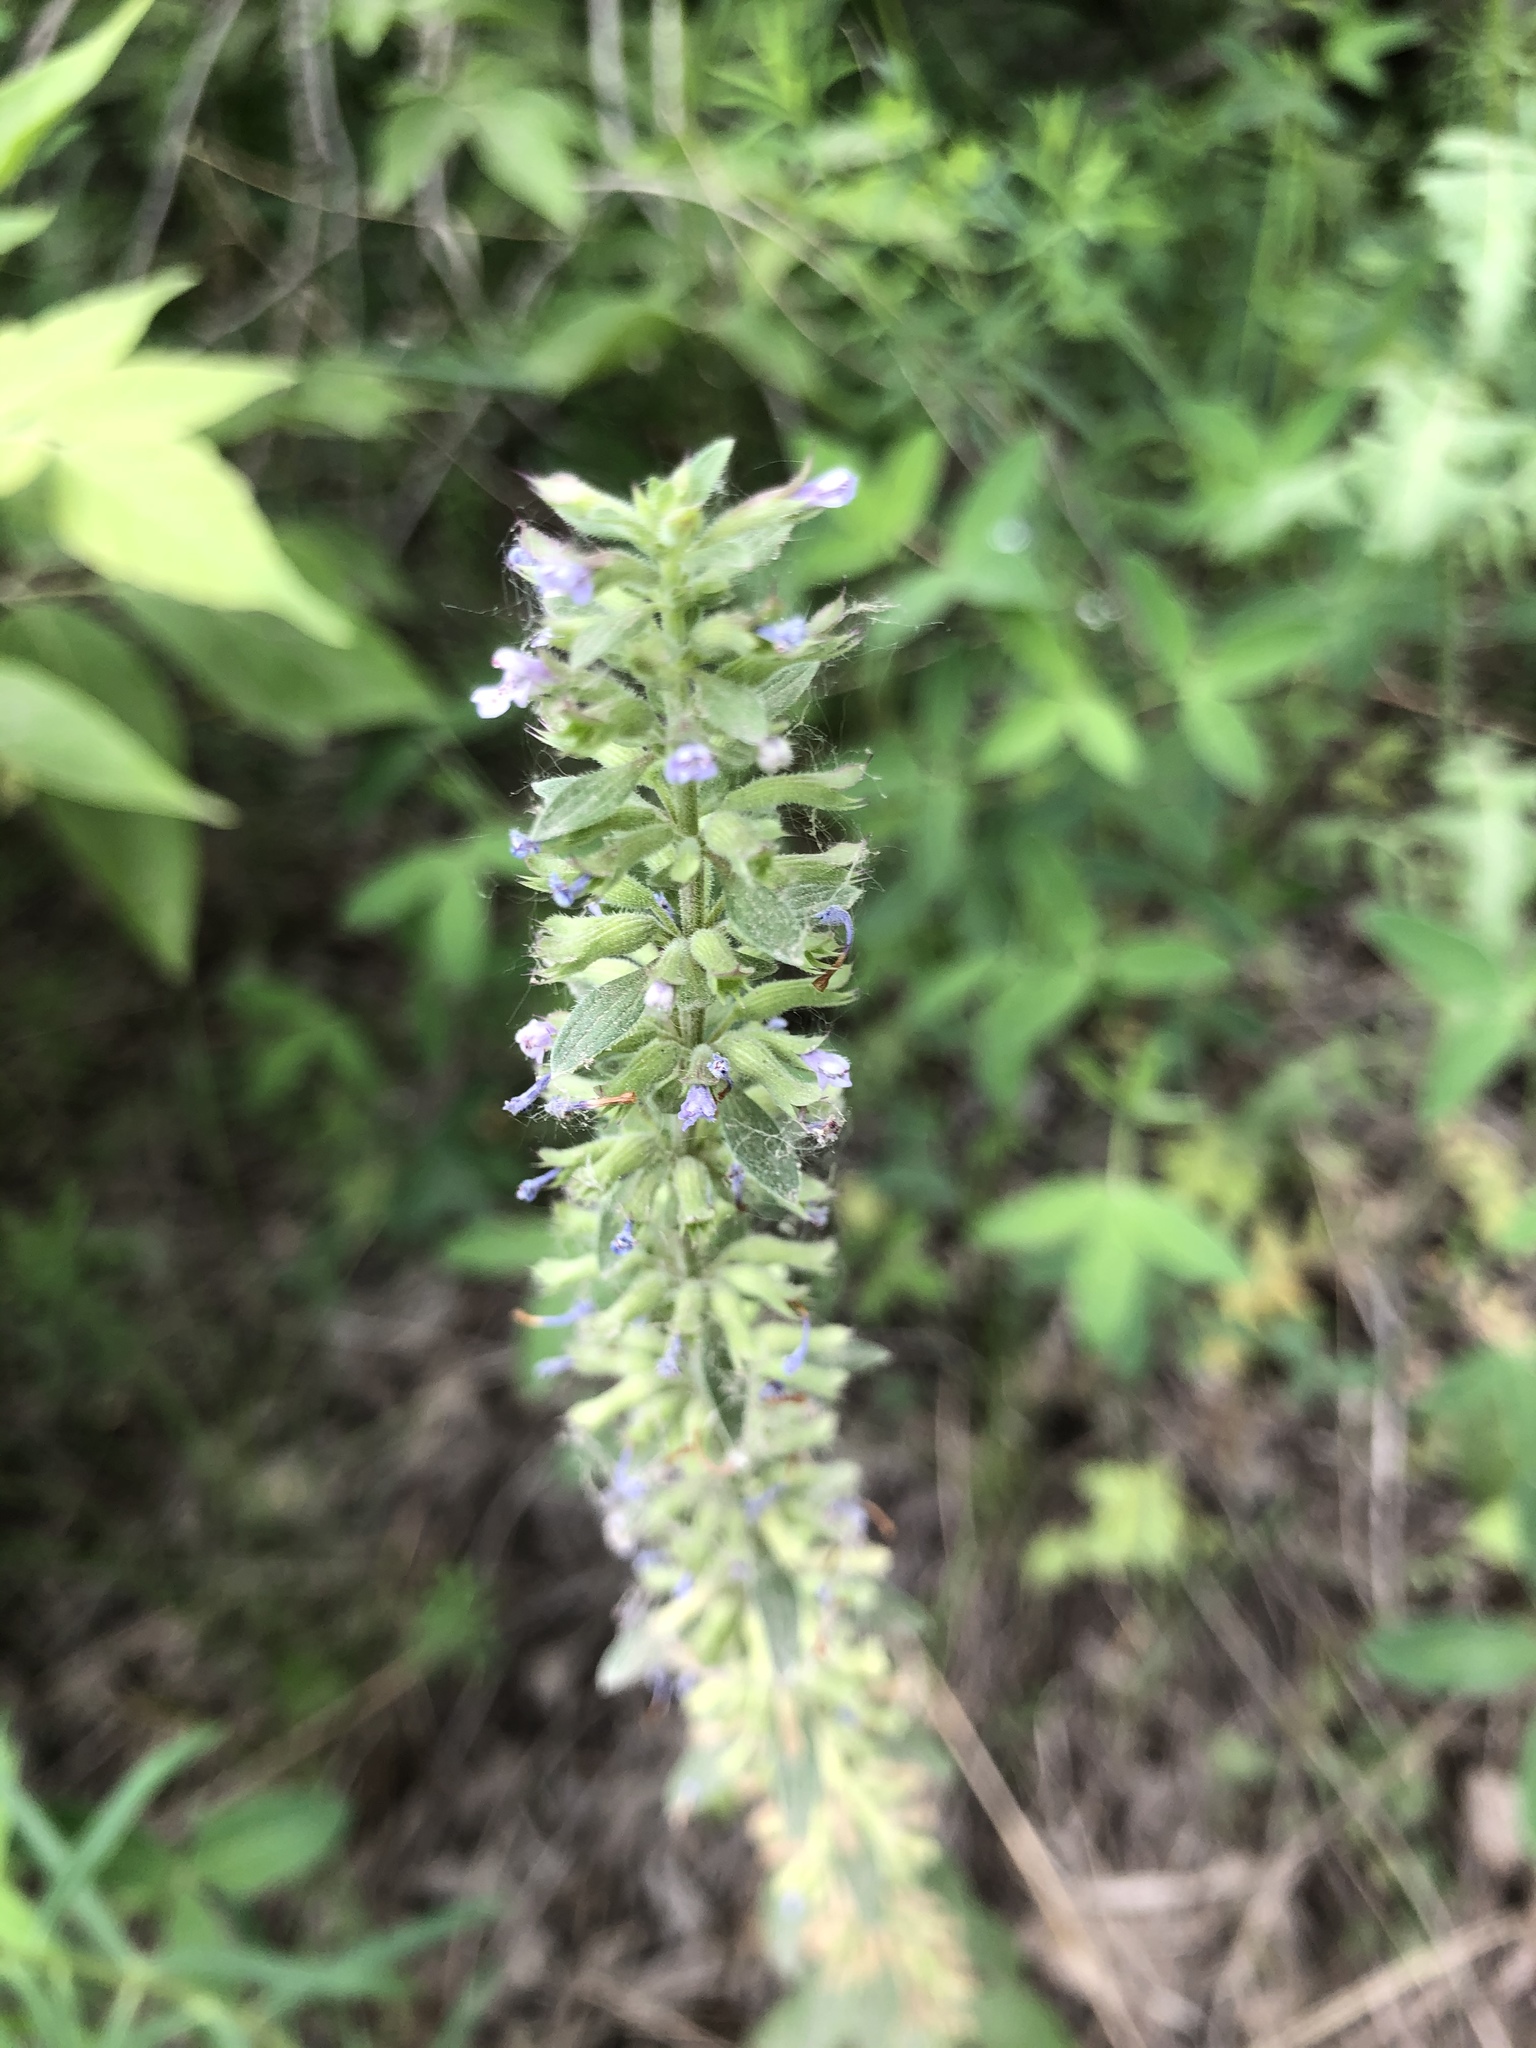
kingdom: Plantae
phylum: Tracheophyta
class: Magnoliopsida
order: Lamiales
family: Lamiaceae
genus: Dracocephalum
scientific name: Dracocephalum thymiflorum
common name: Thymeleaf dragonhead
